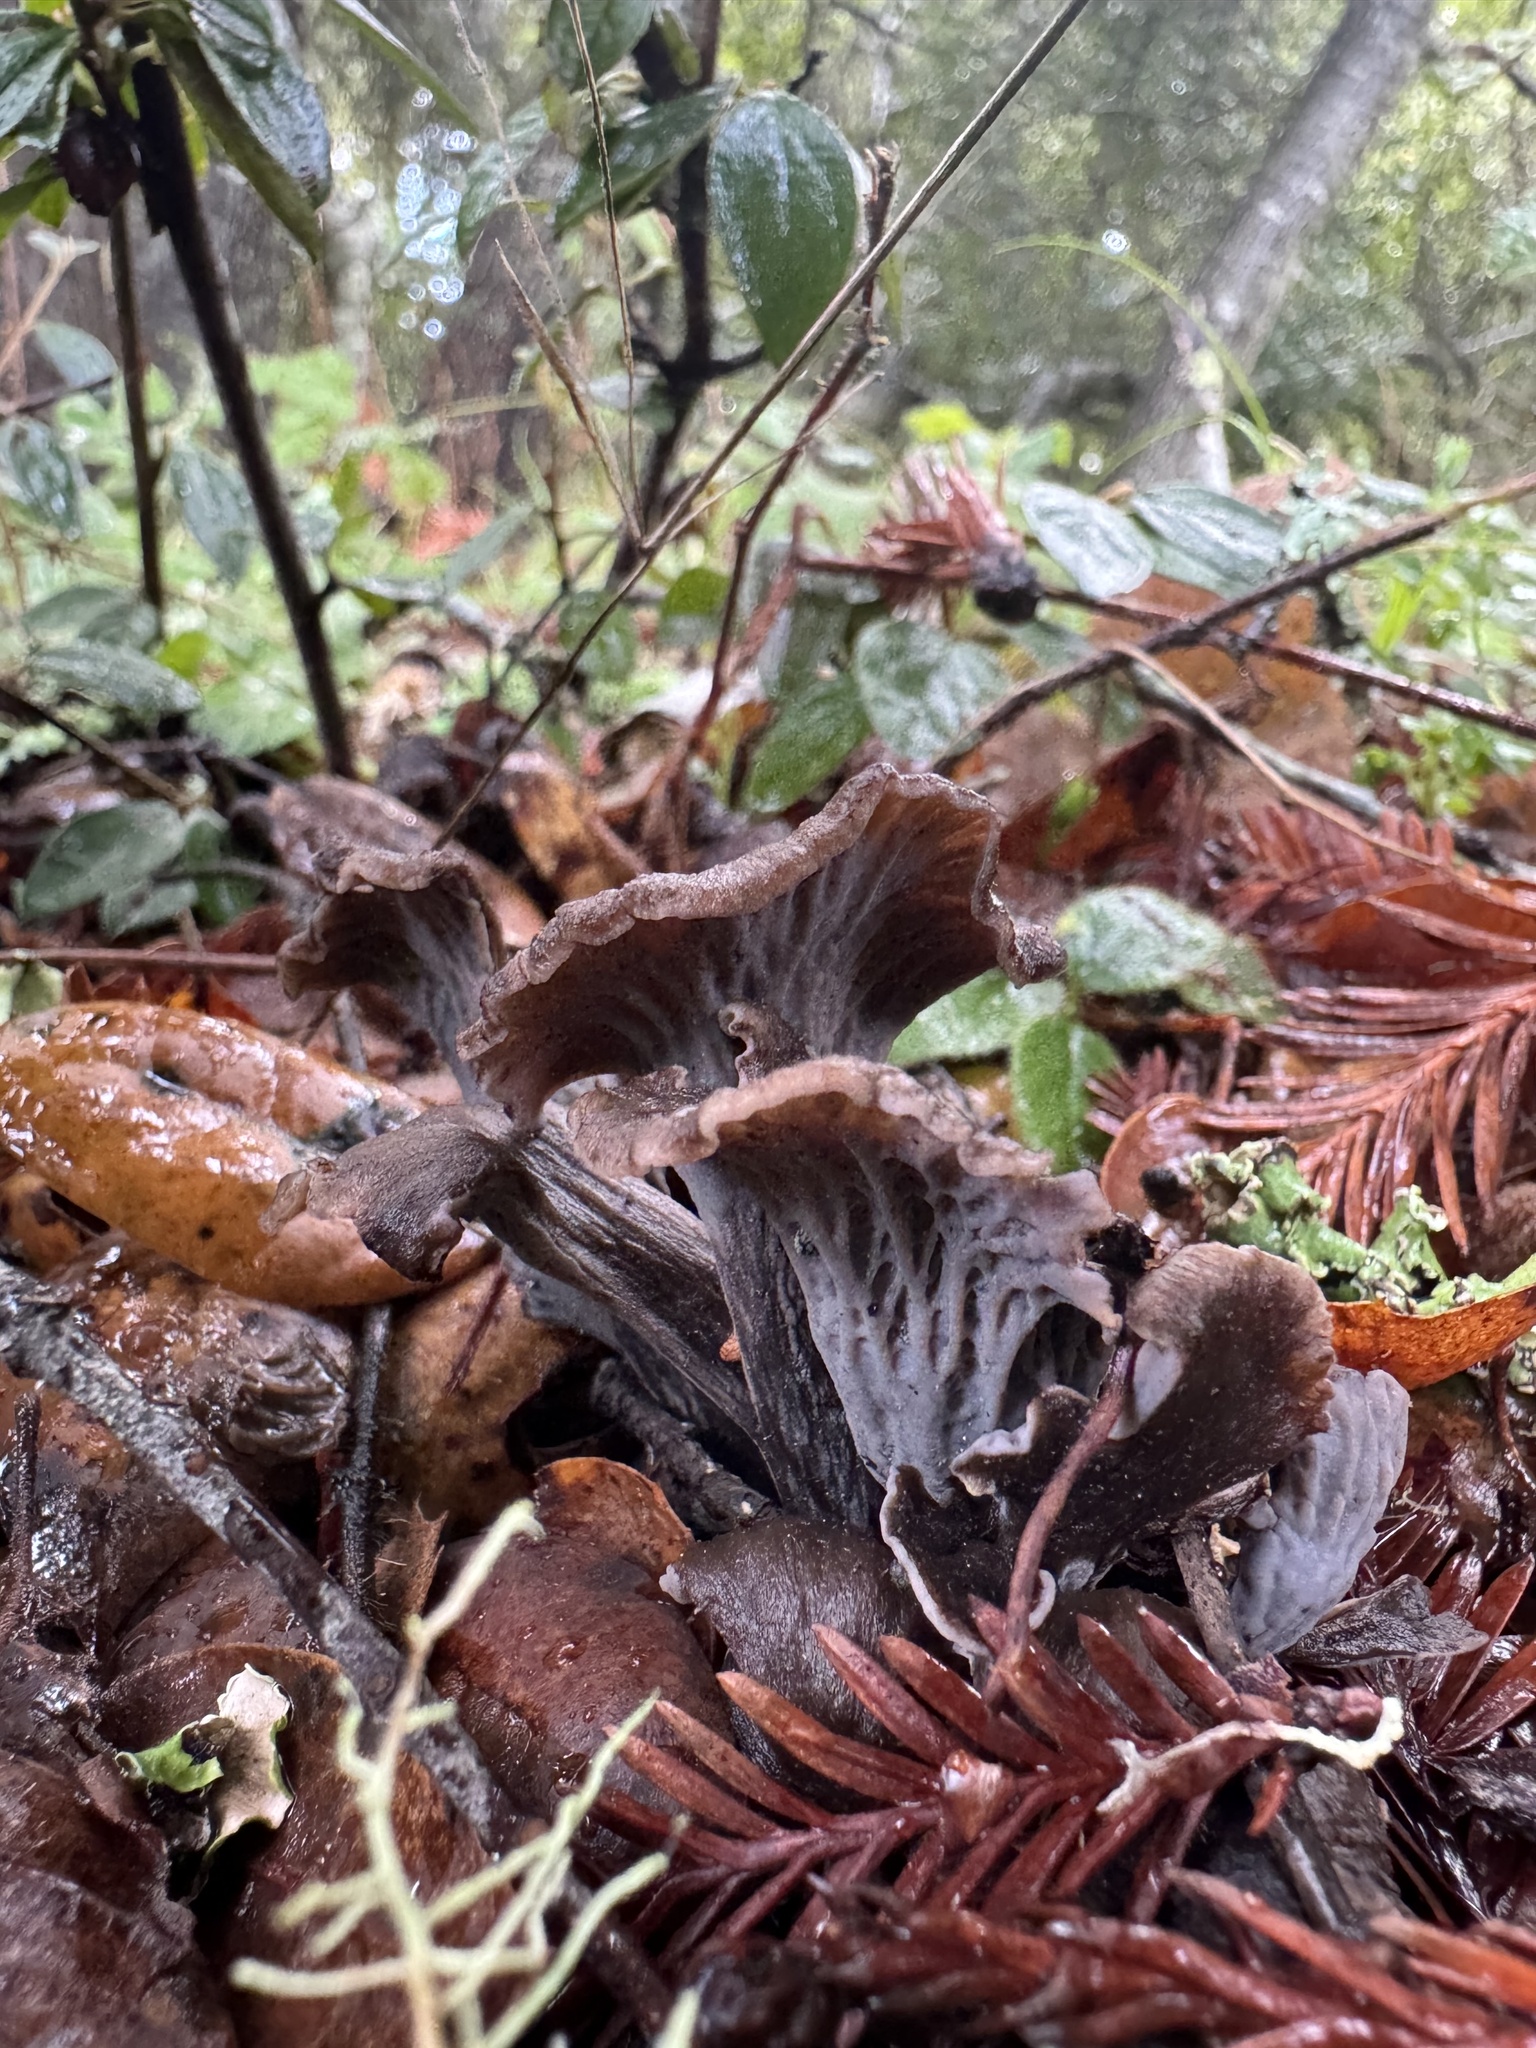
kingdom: Fungi
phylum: Basidiomycota
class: Agaricomycetes
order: Cantharellales
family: Hydnaceae
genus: Craterellus
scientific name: Craterellus atrocinereus
